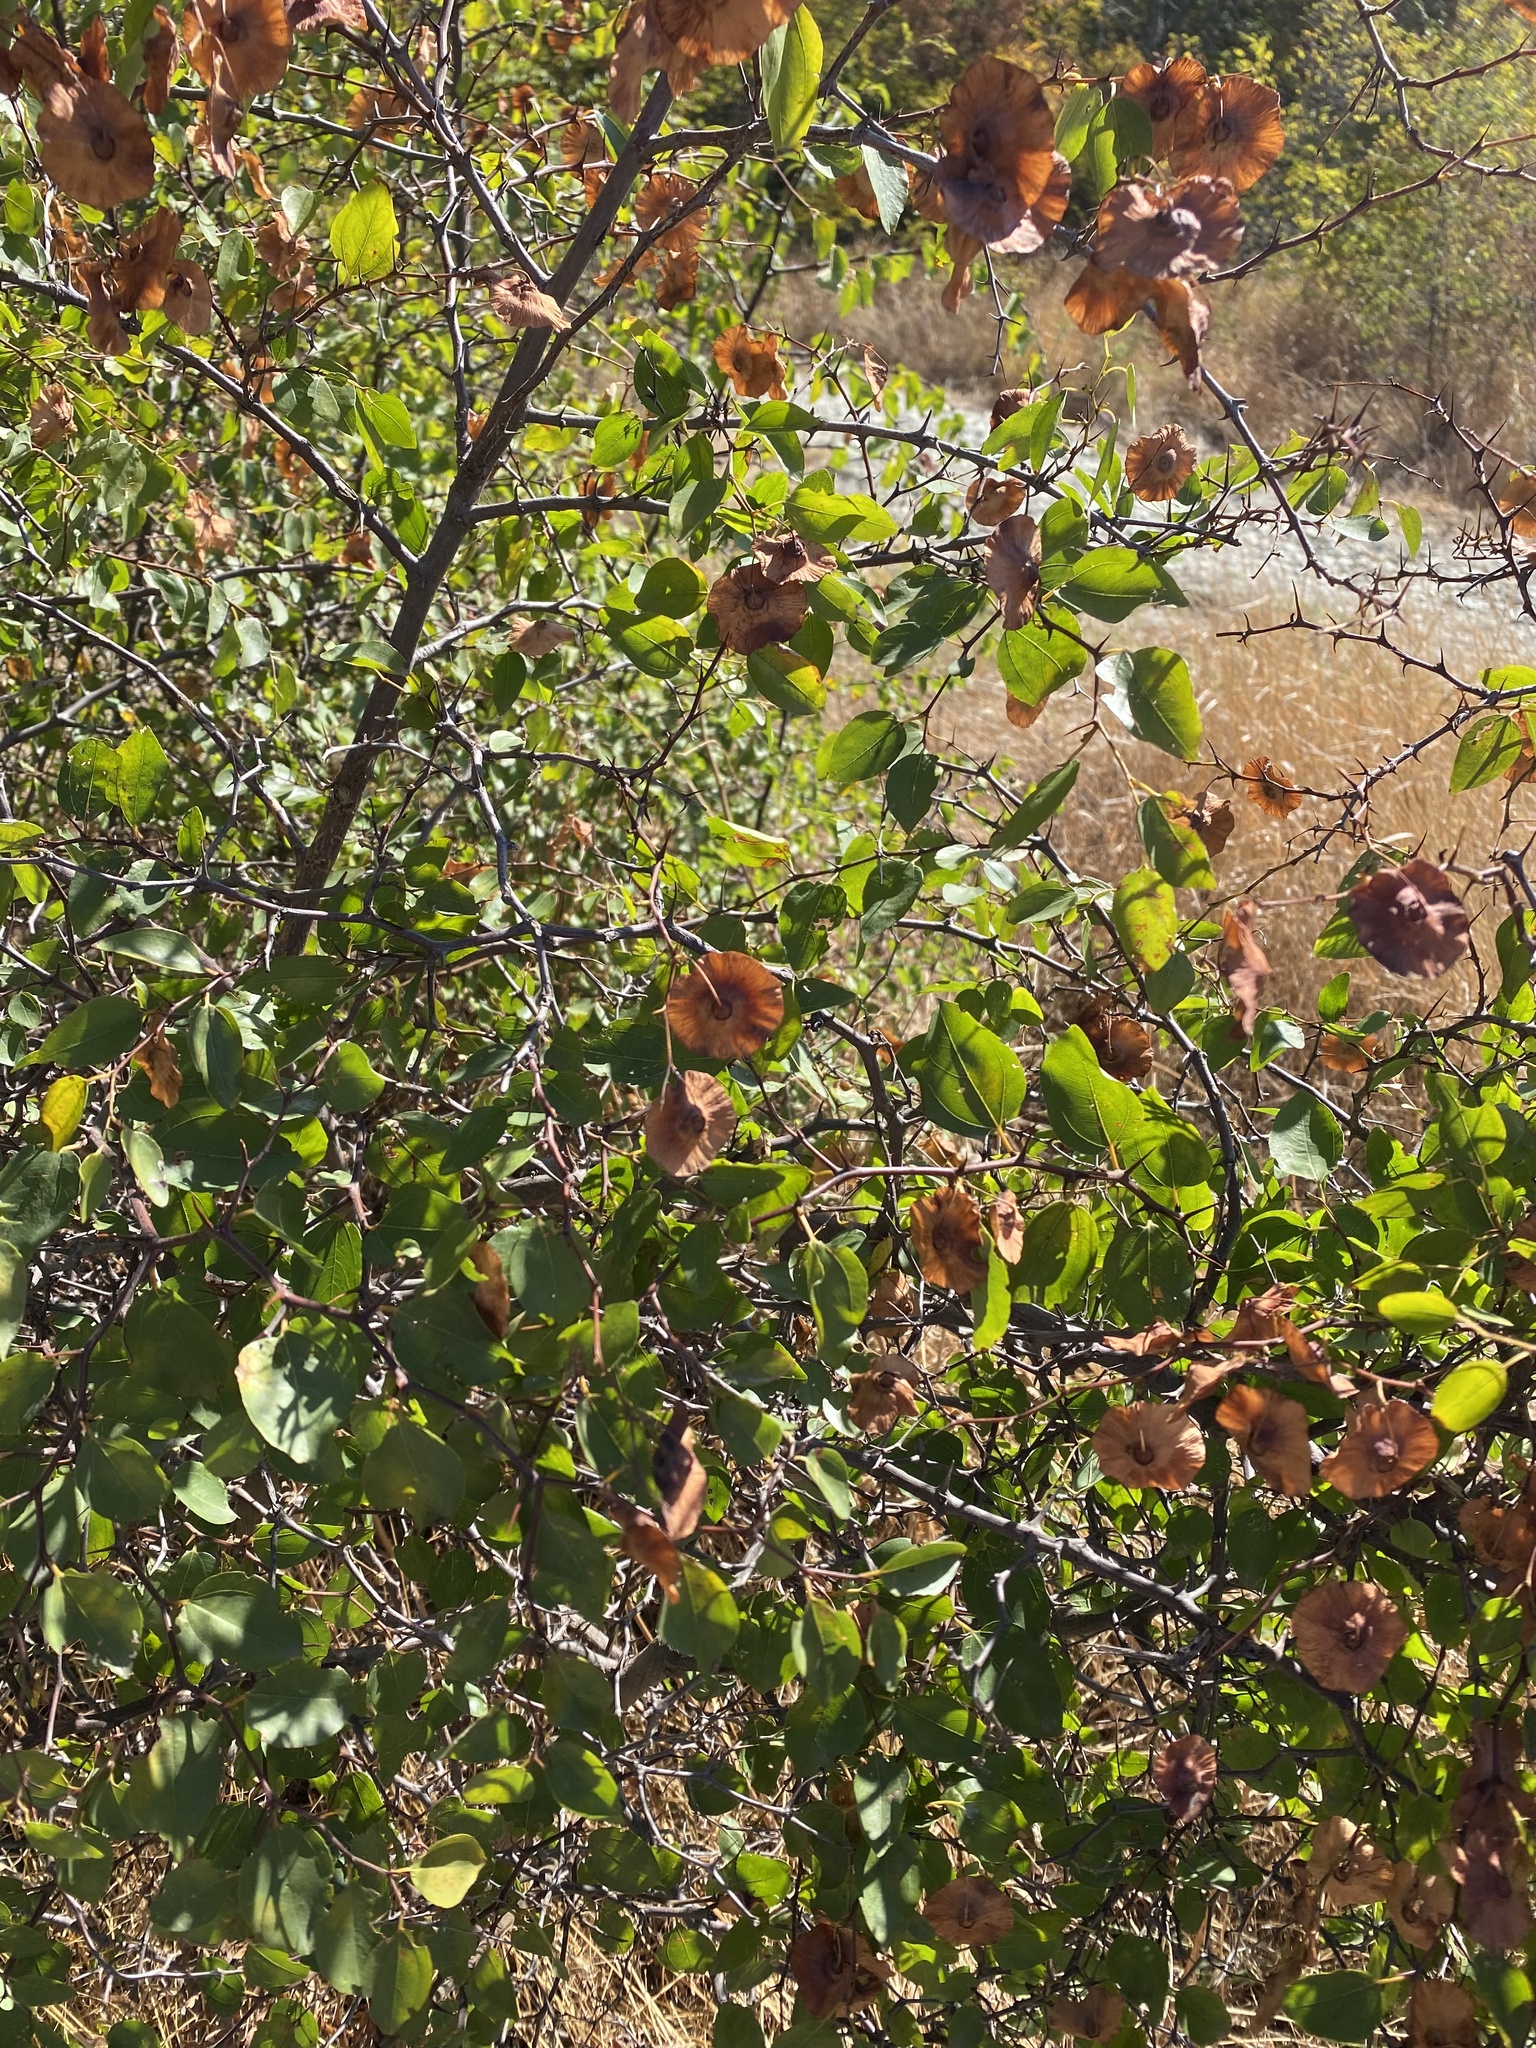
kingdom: Plantae
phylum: Tracheophyta
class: Magnoliopsida
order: Rosales
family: Rhamnaceae
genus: Paliurus
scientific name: Paliurus spina-christi
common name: Jeruselem thorn
